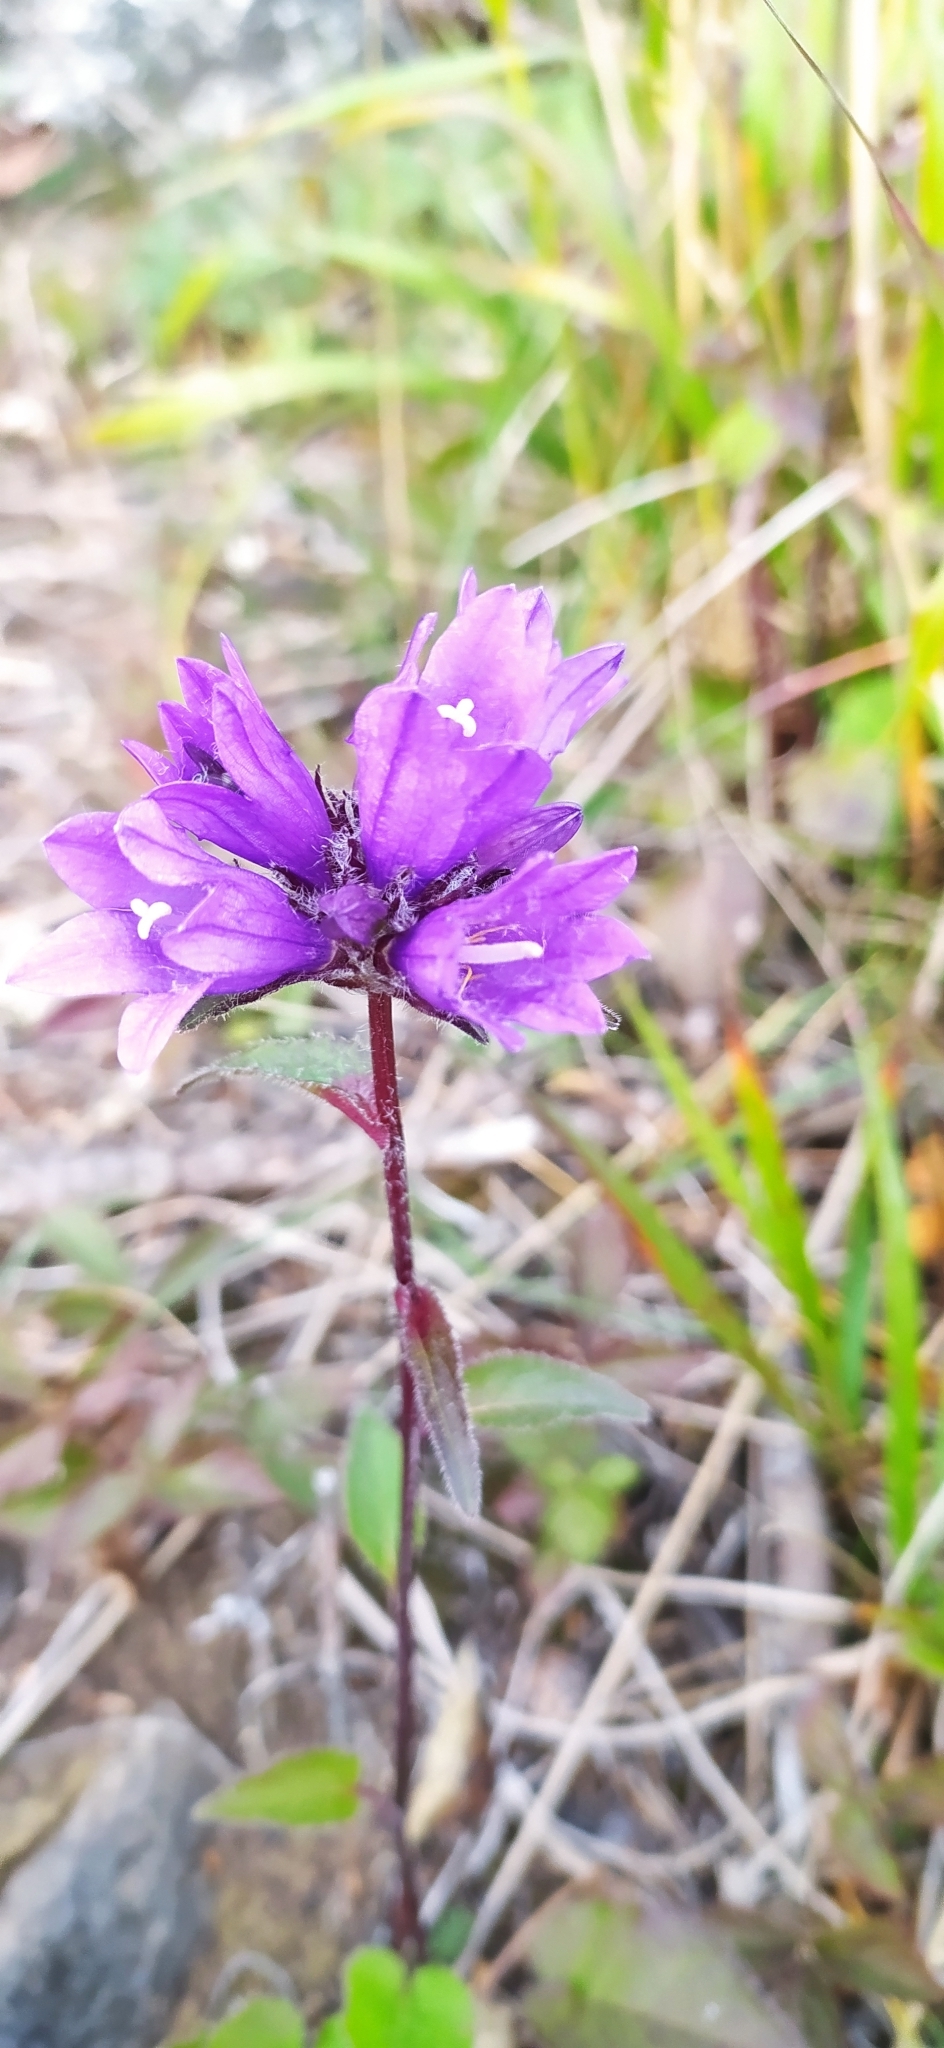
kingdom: Plantae
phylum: Tracheophyta
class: Magnoliopsida
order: Asterales
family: Campanulaceae
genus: Campanula
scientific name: Campanula glomerata
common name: Clustered bellflower
